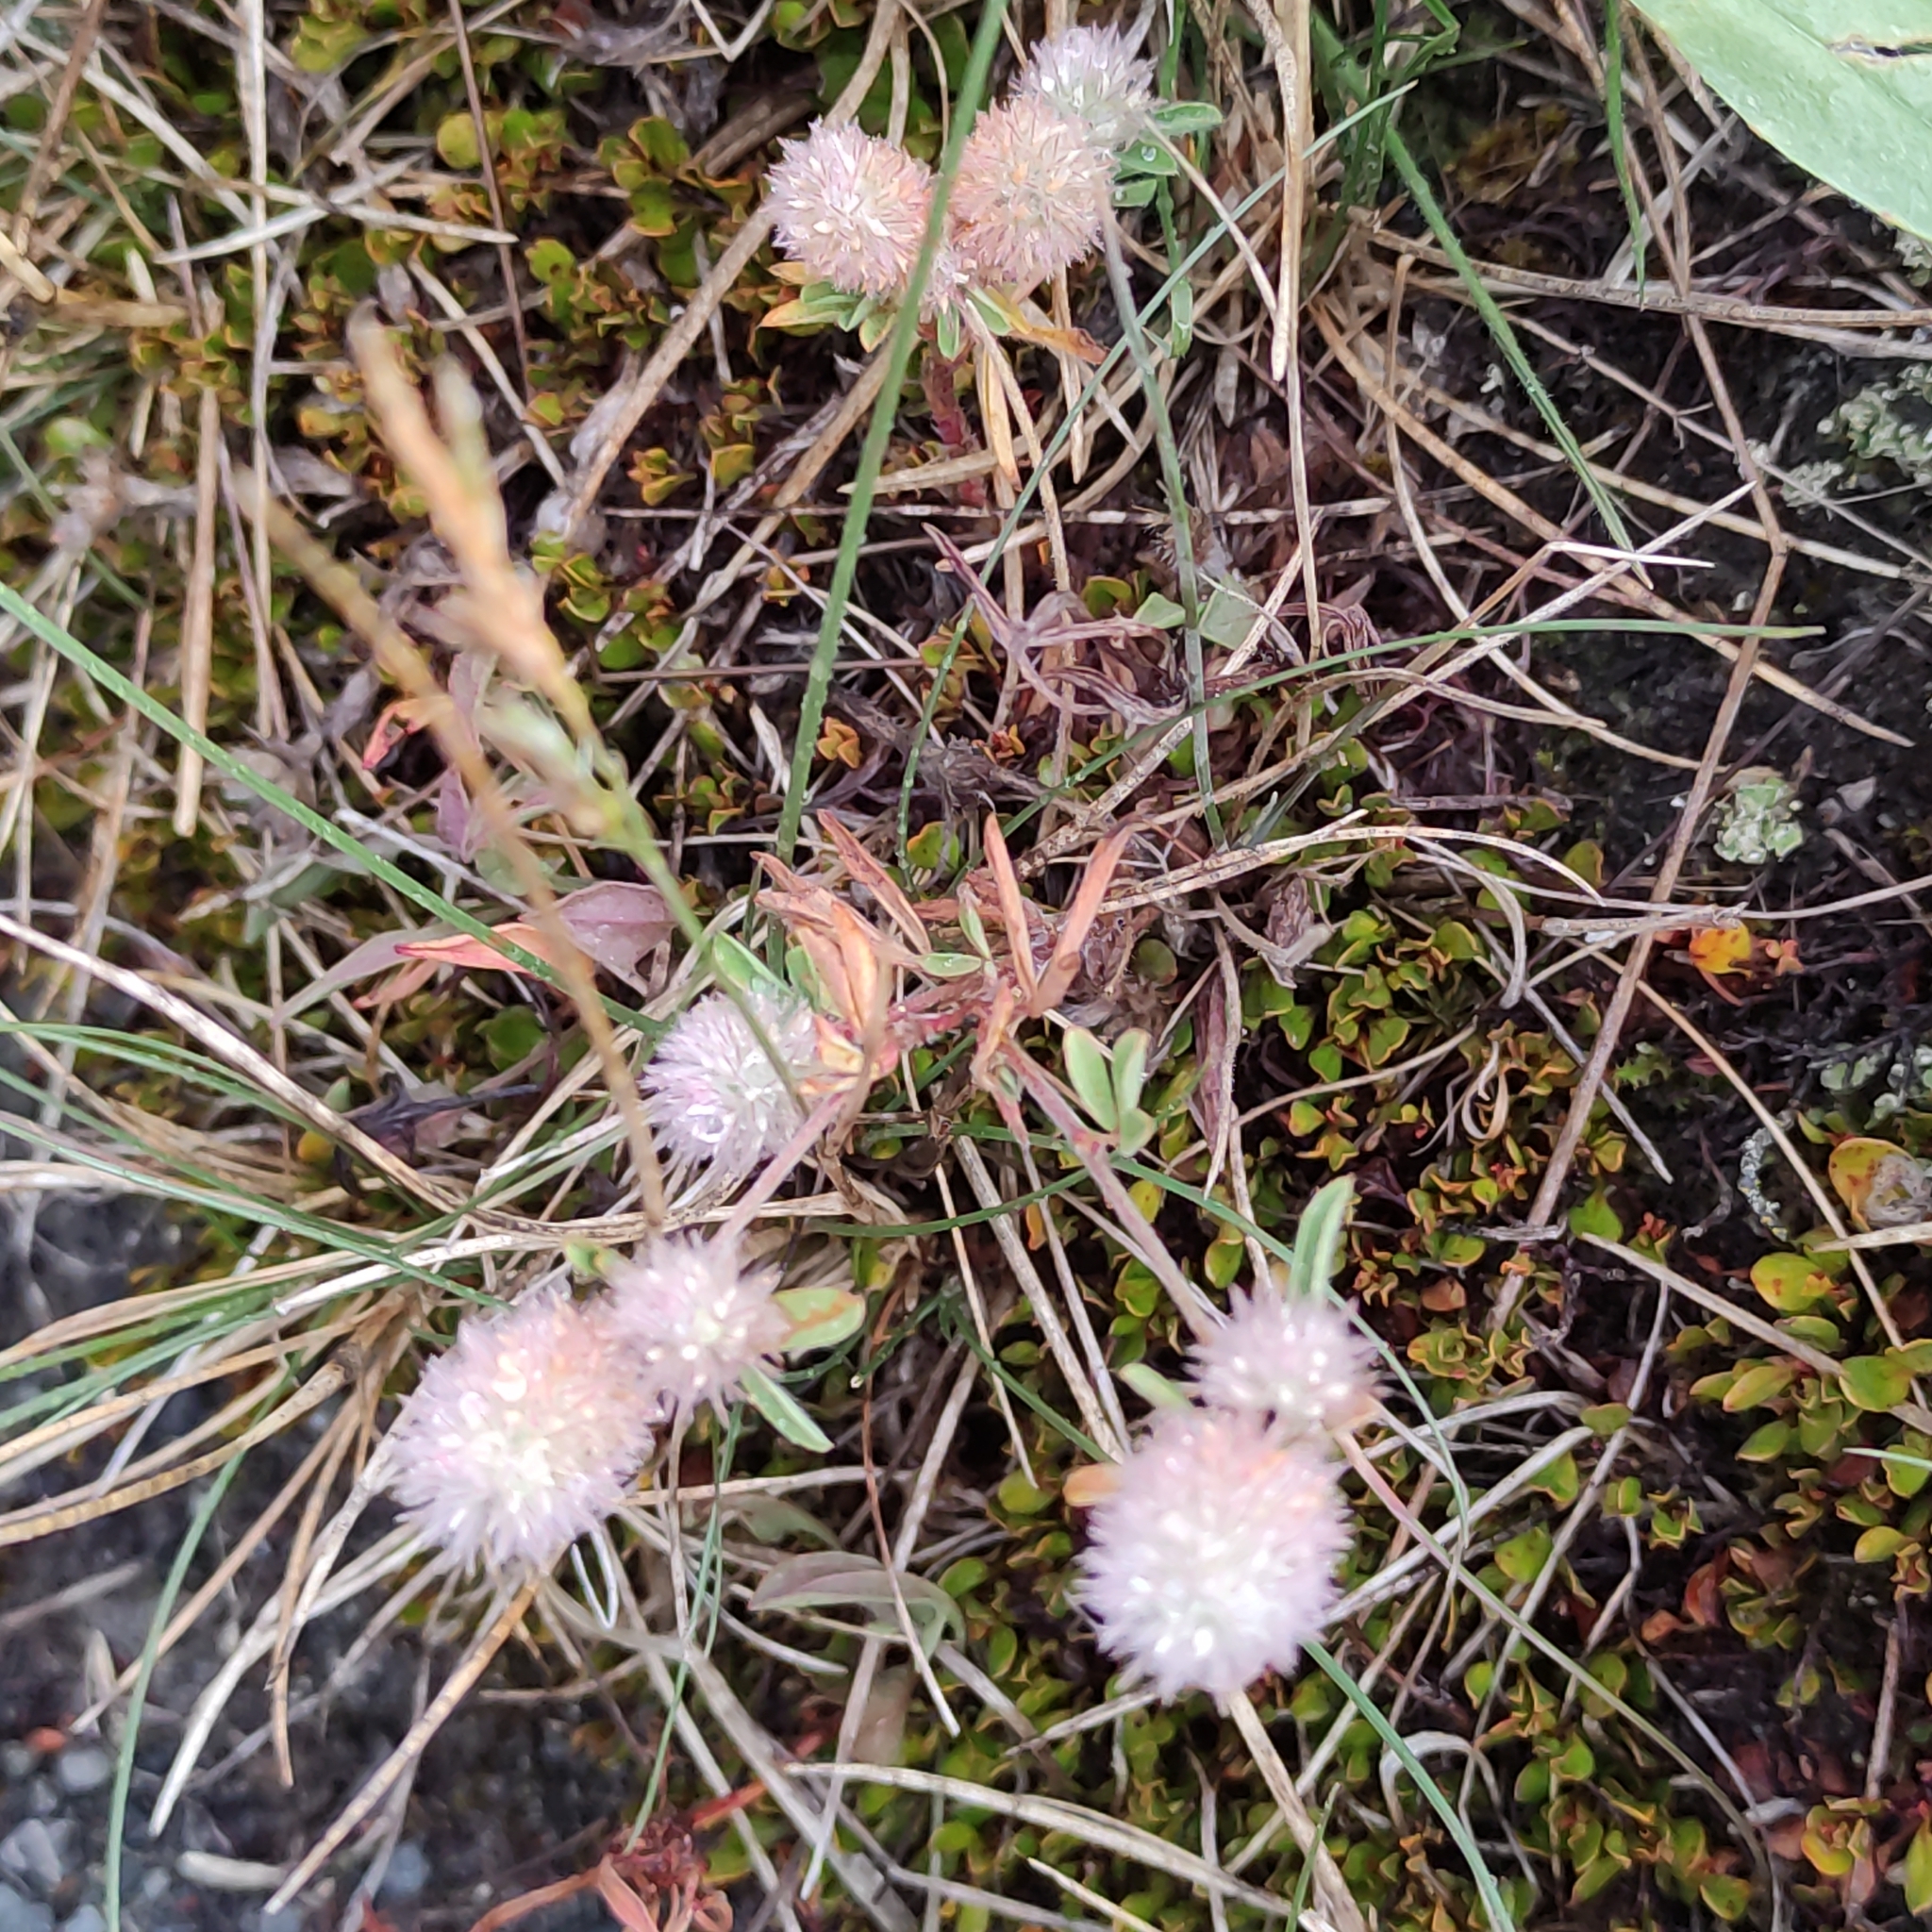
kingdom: Plantae
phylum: Tracheophyta
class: Magnoliopsida
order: Fabales
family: Fabaceae
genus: Trifolium
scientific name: Trifolium arvense
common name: Hare's-foot clover
